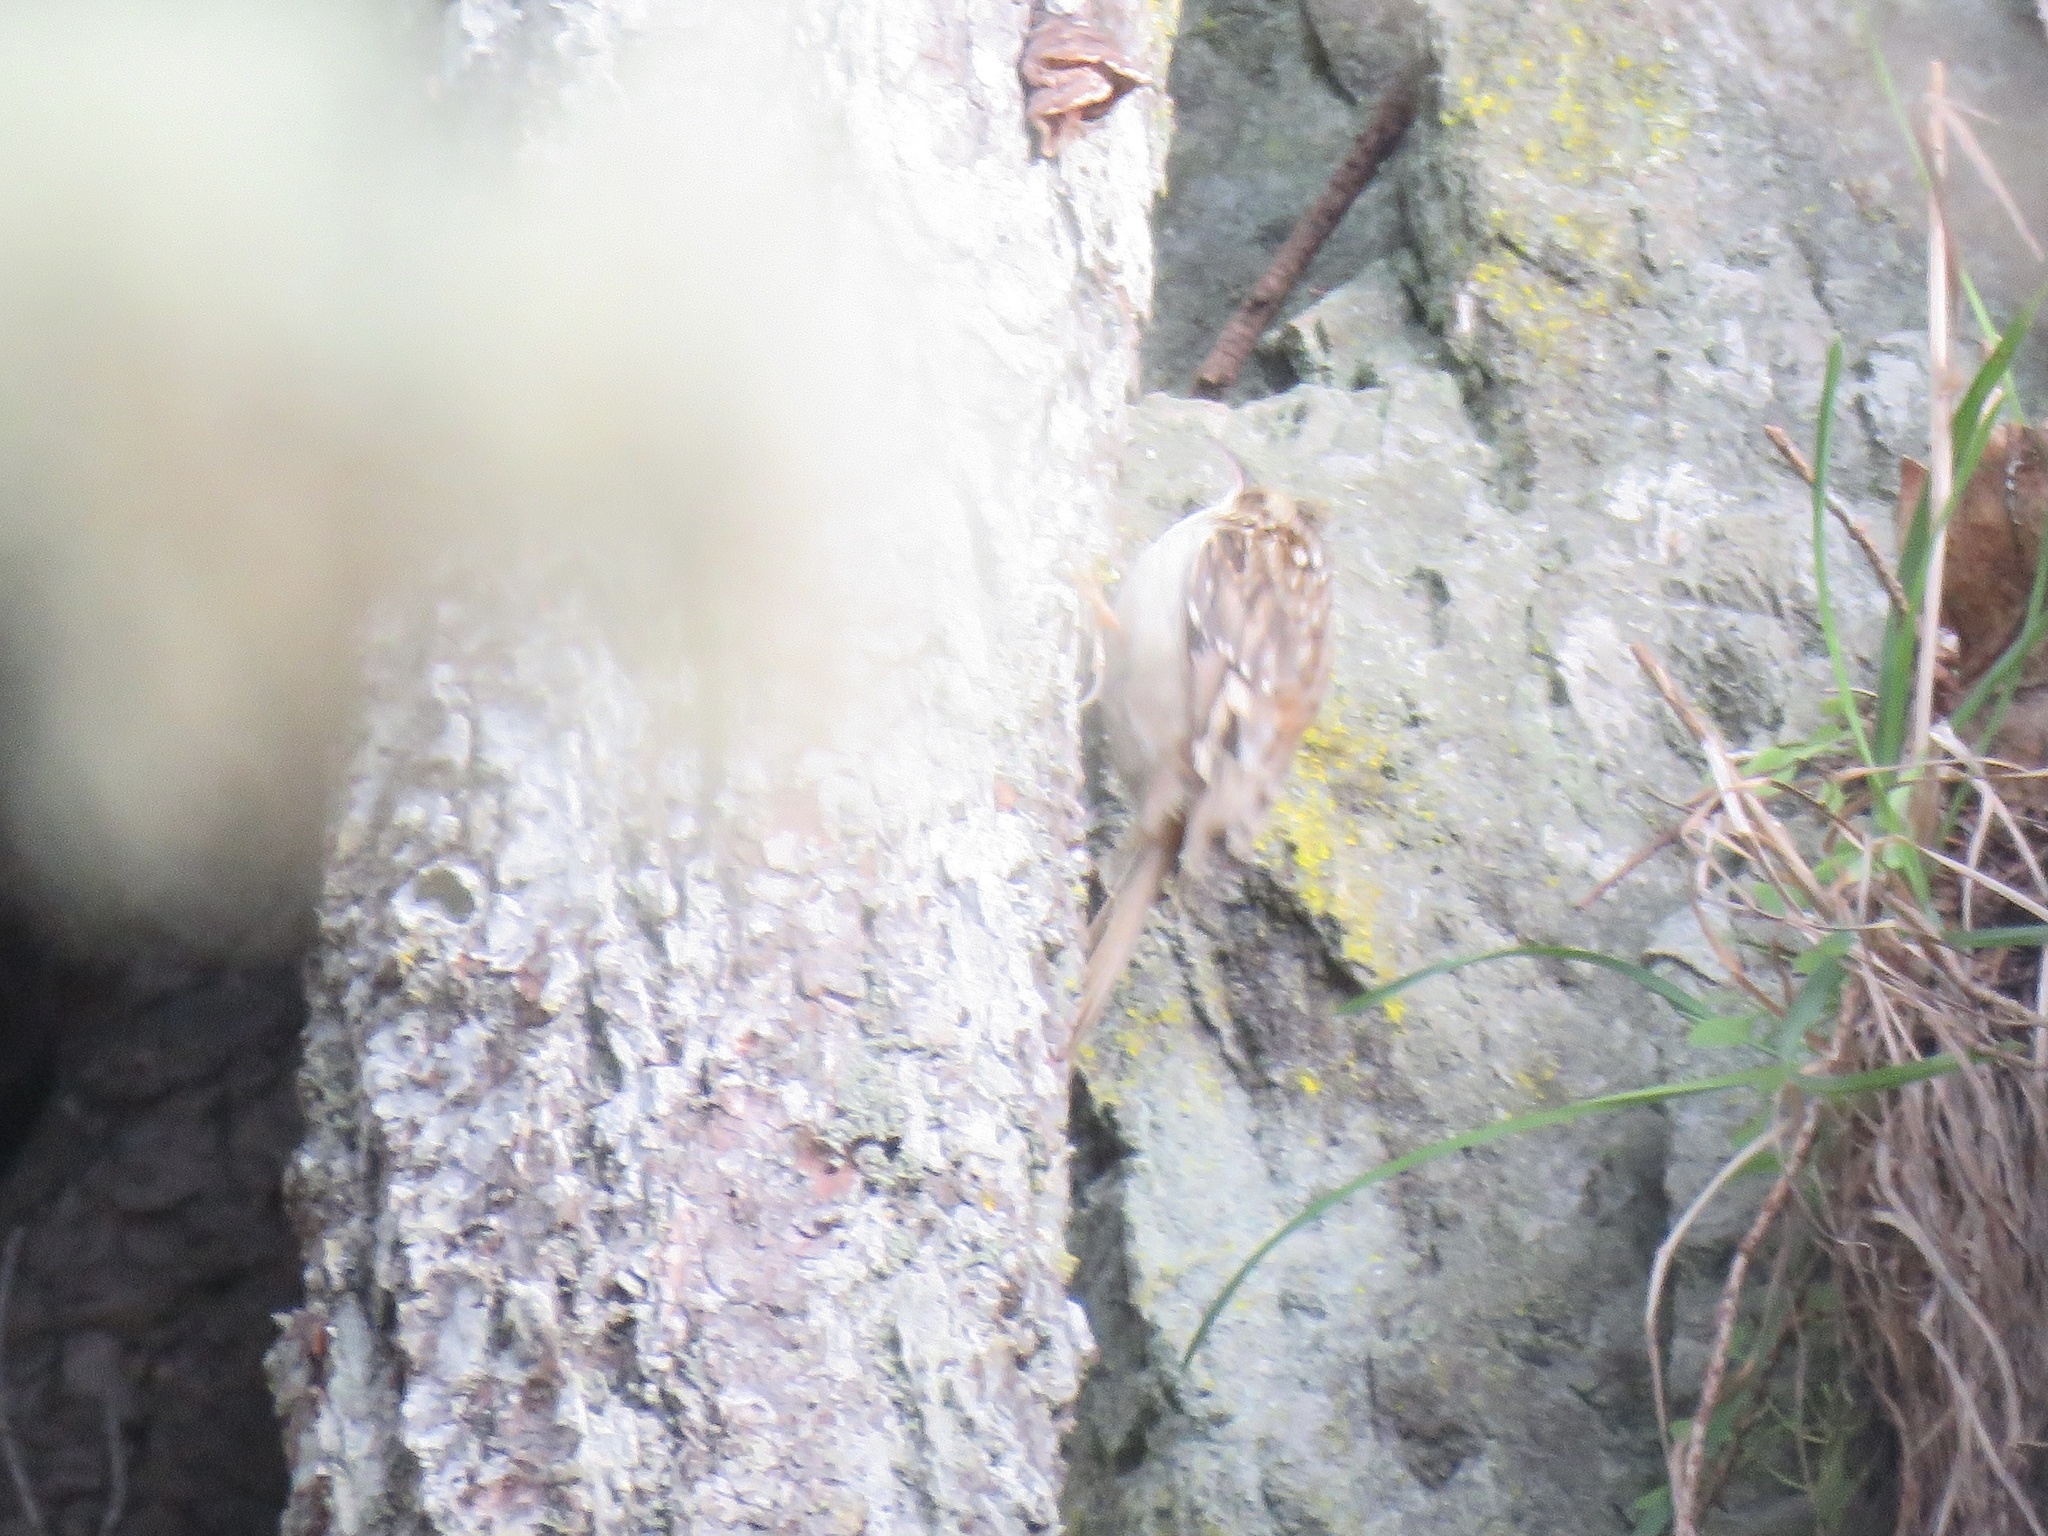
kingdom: Animalia
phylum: Chordata
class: Aves
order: Passeriformes
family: Certhiidae
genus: Certhia
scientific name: Certhia americana
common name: Brown creeper
